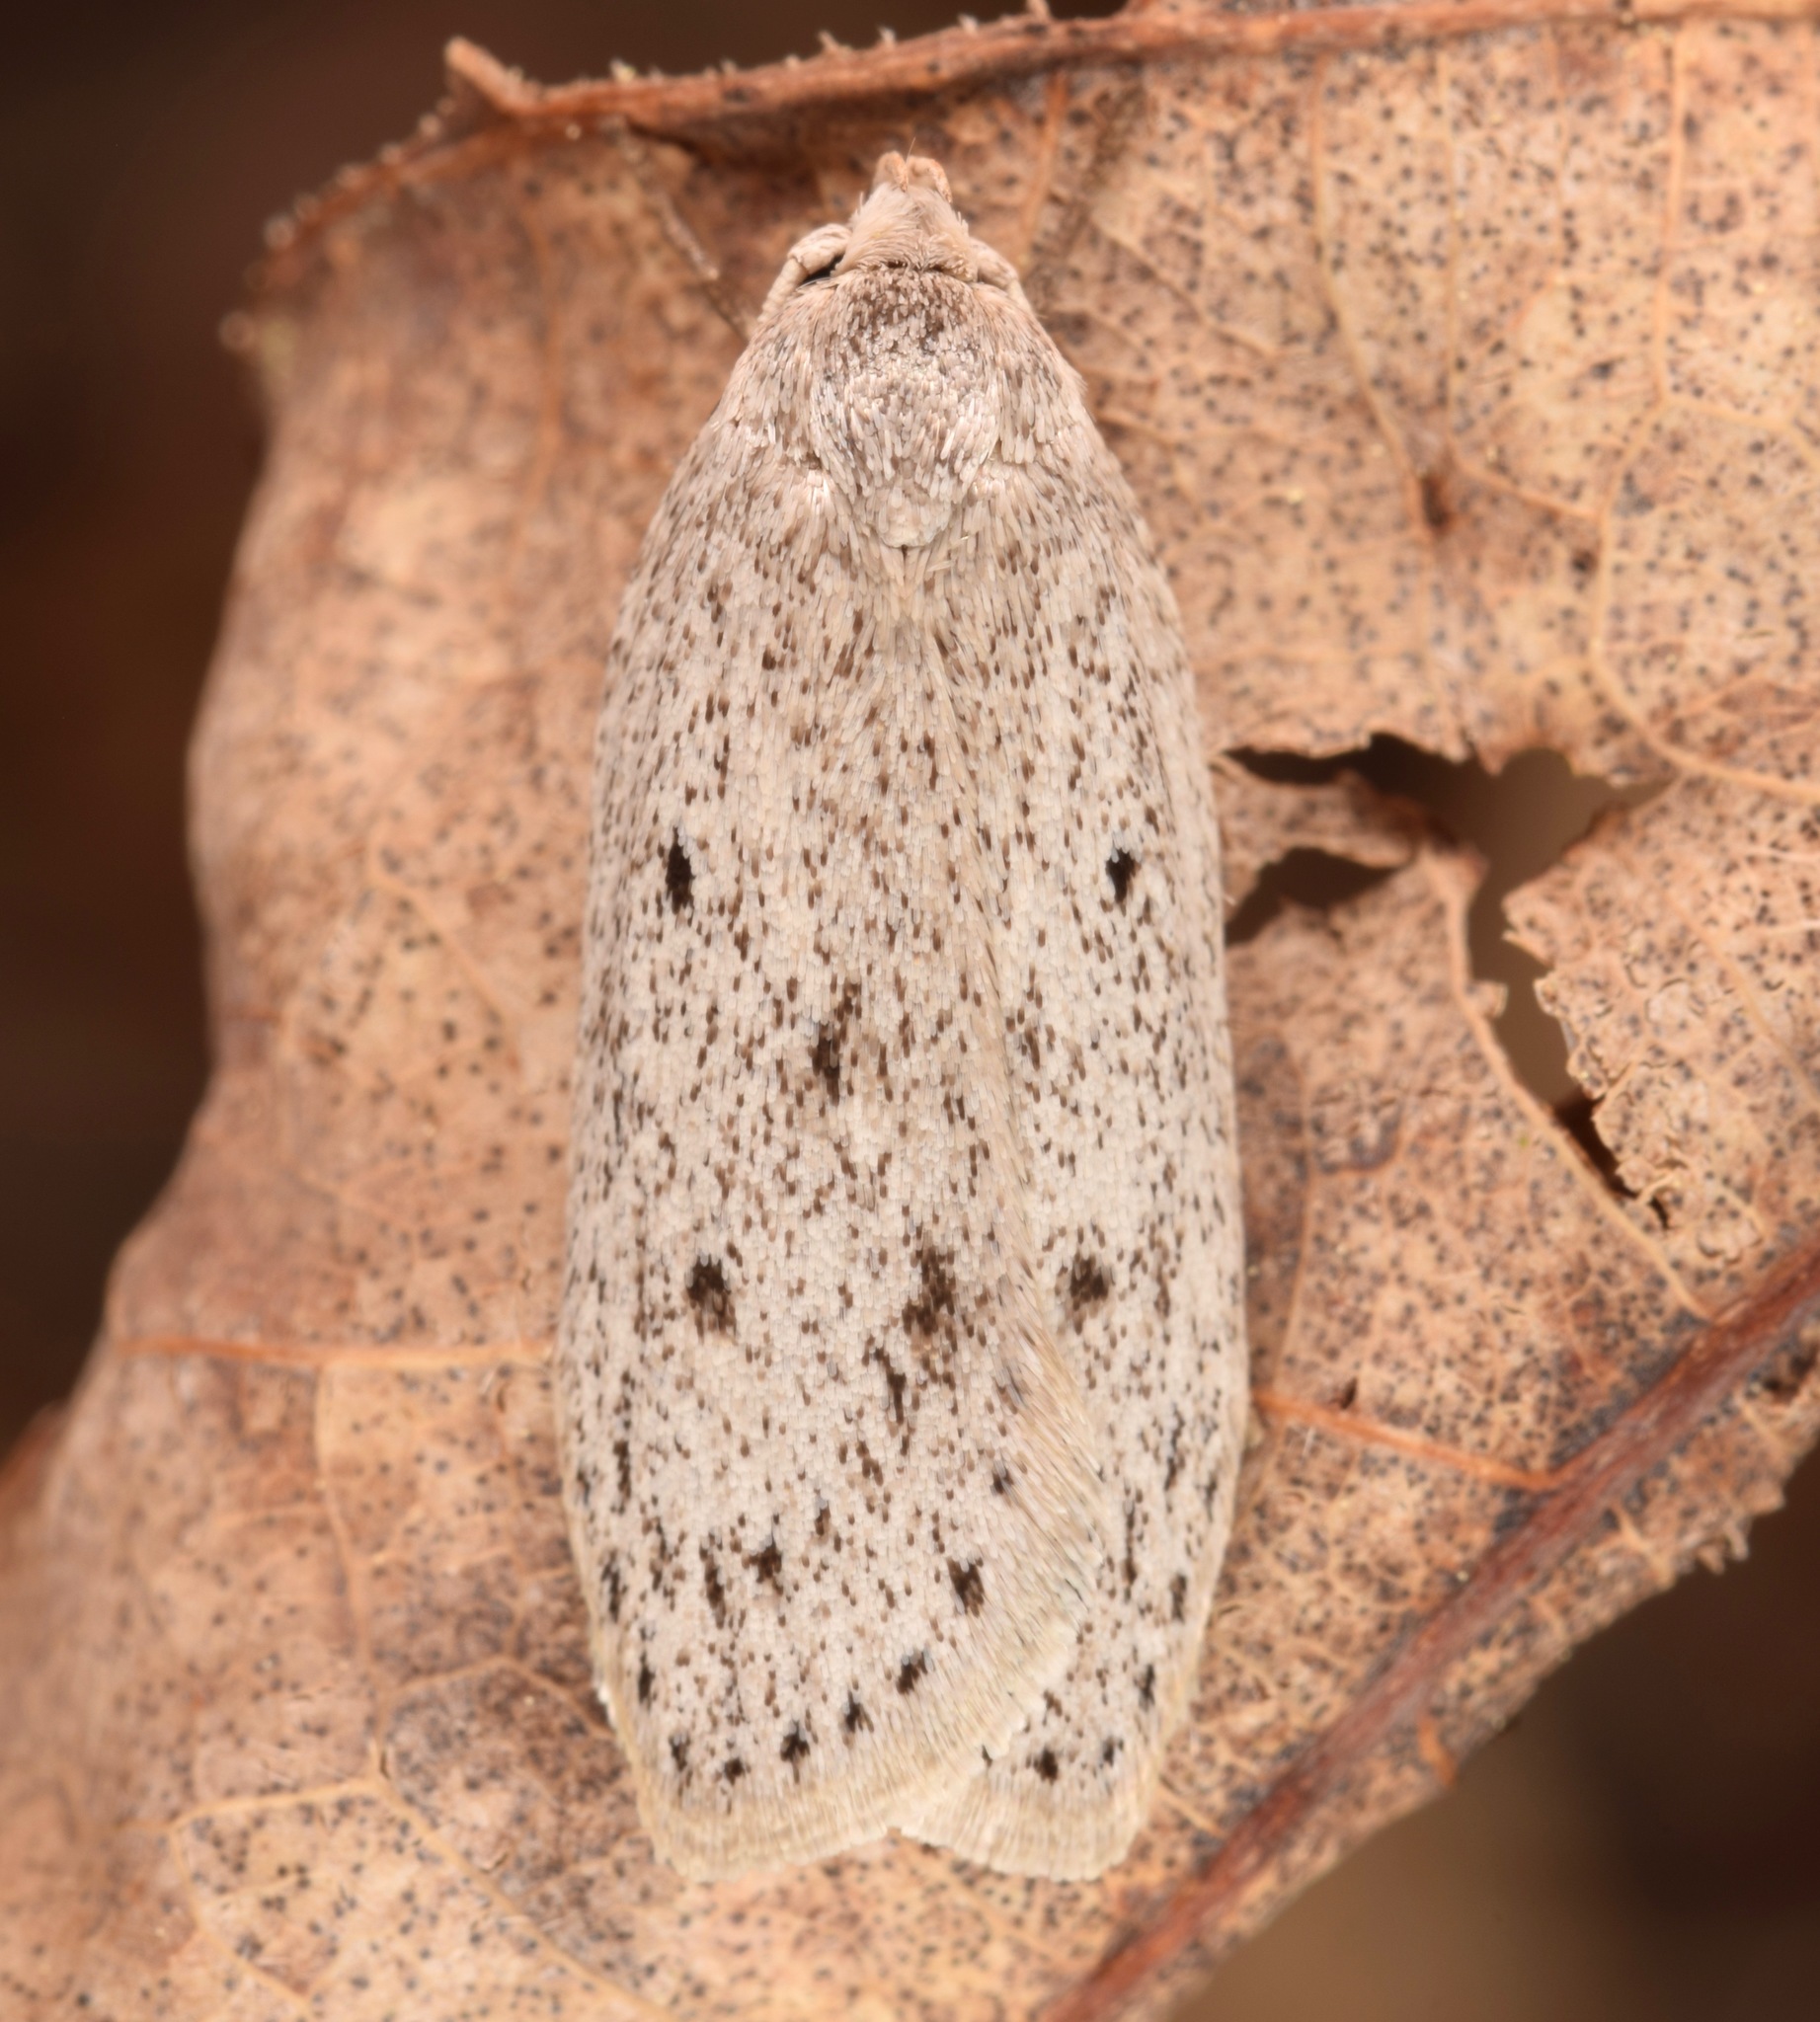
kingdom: Animalia
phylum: Arthropoda
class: Insecta
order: Lepidoptera
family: Oecophoridae
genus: Pseuderotis
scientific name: Pseuderotis obiterella
